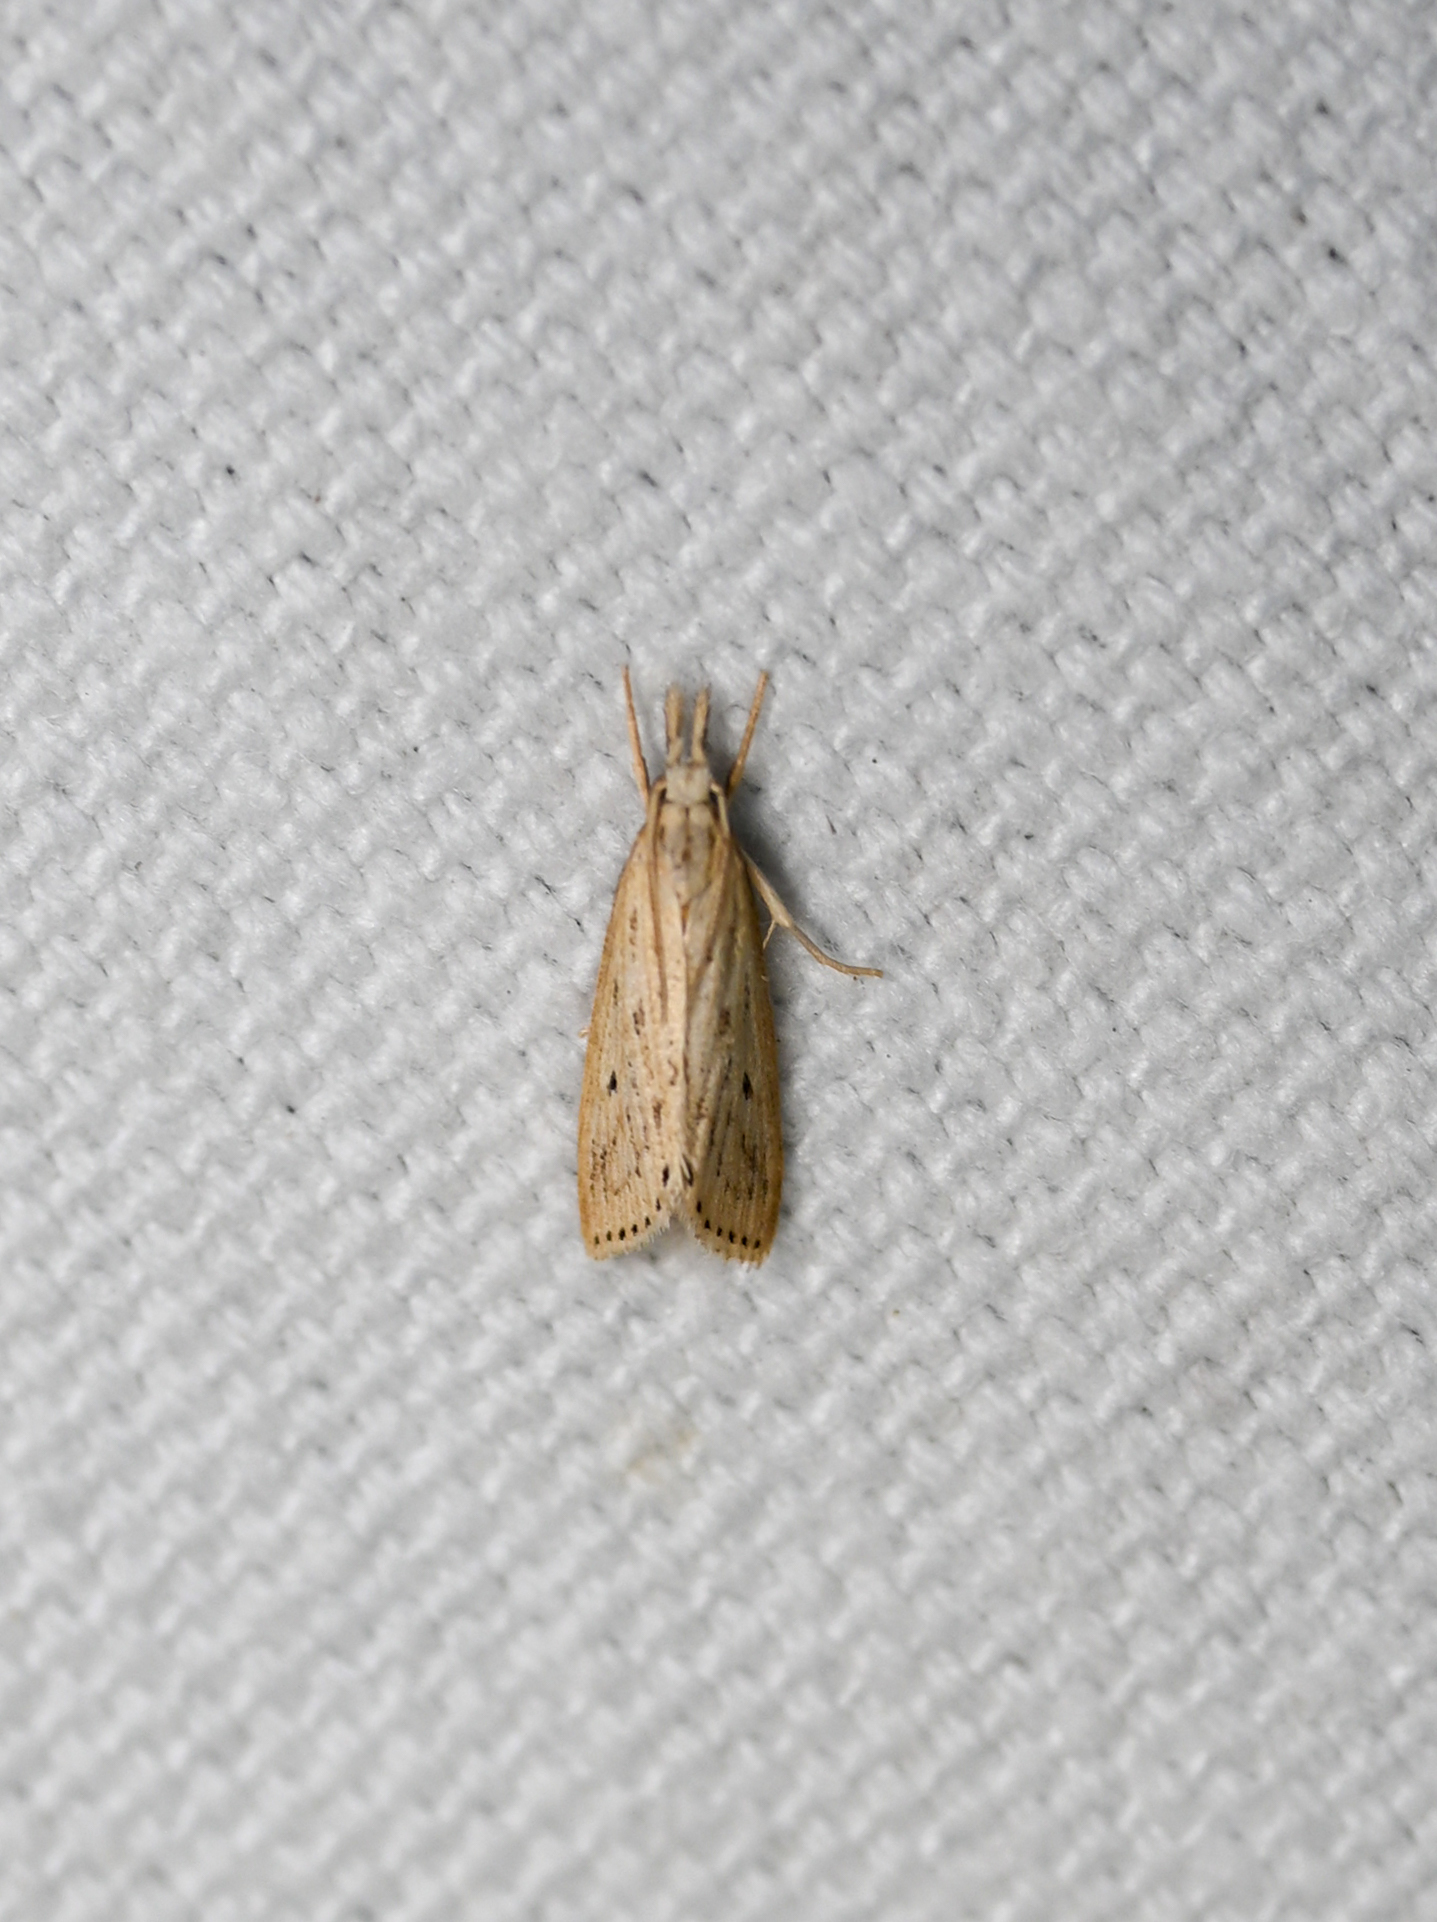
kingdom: Animalia
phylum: Arthropoda
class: Insecta
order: Lepidoptera
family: Crambidae
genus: Diatraea
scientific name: Diatraea lisetta
